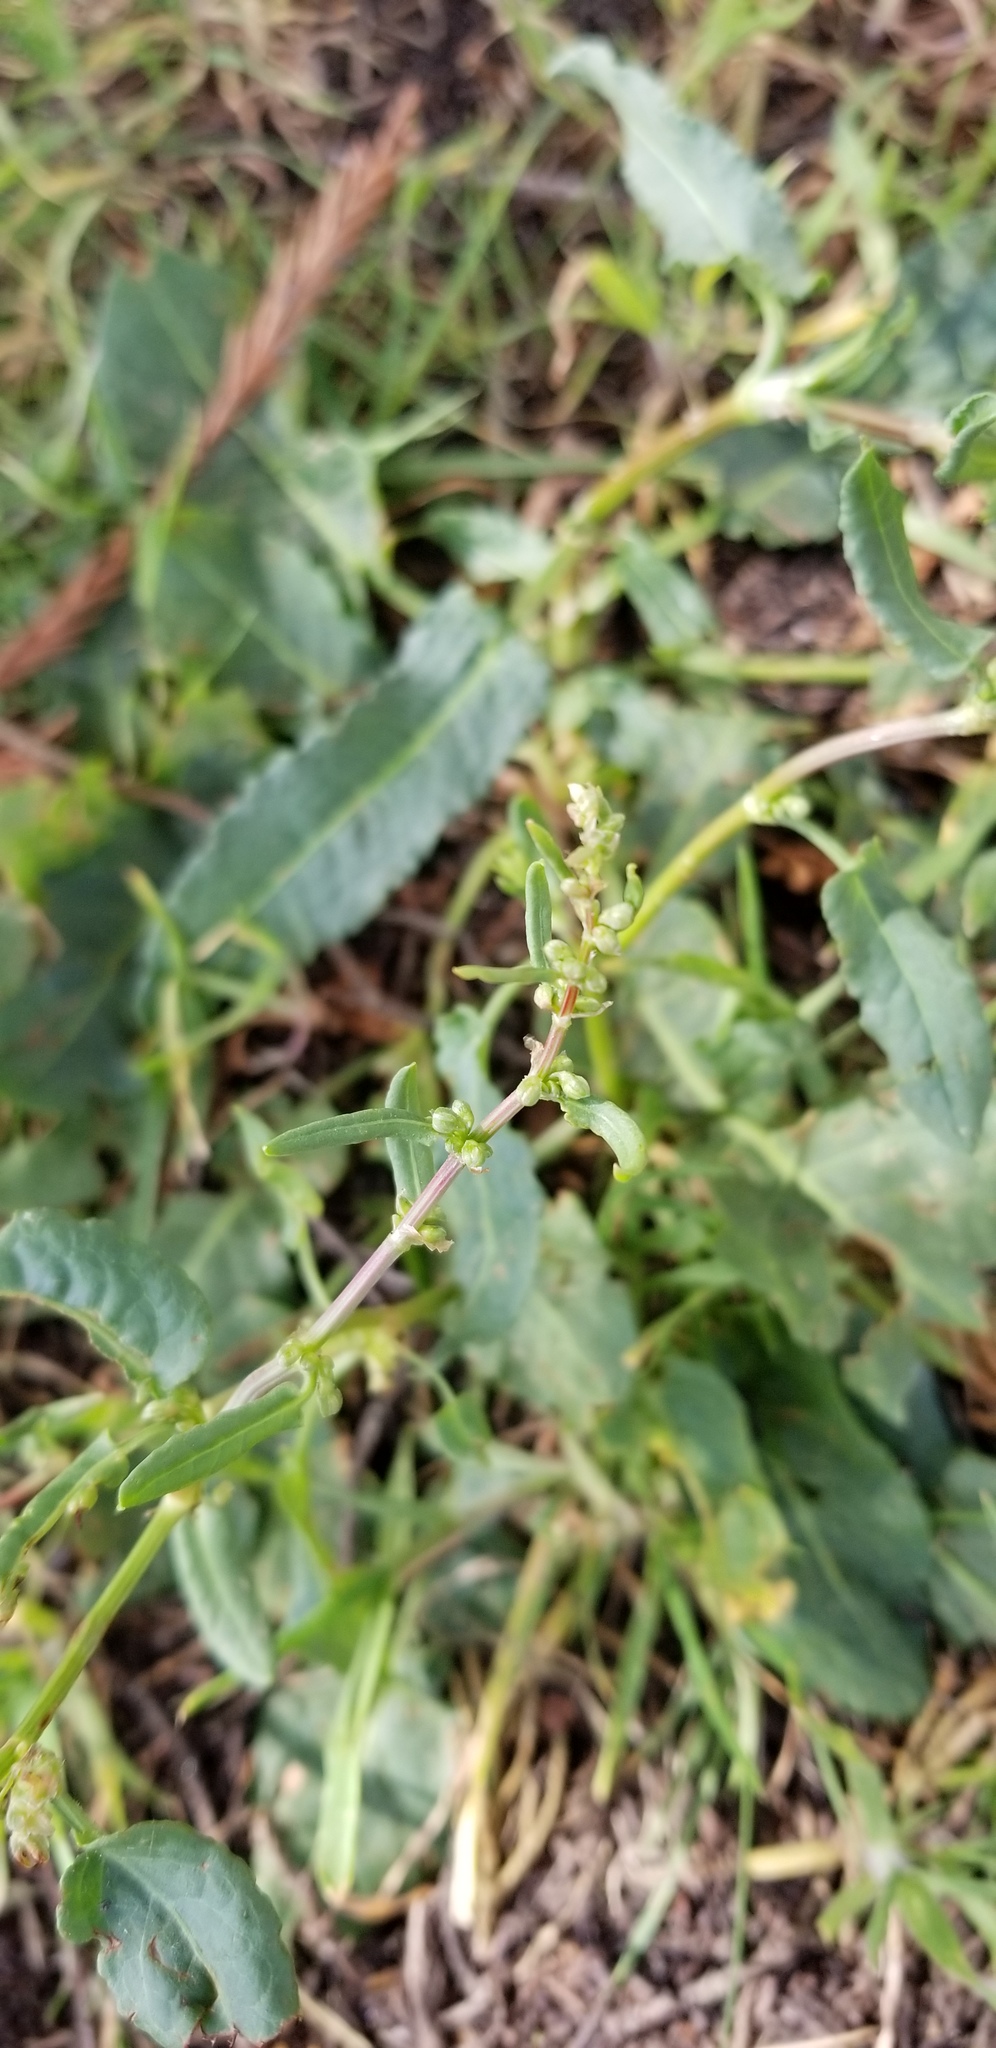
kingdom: Plantae
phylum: Tracheophyta
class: Magnoliopsida
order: Caryophyllales
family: Polygonaceae
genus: Rumex
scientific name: Rumex crispus
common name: Curled dock
